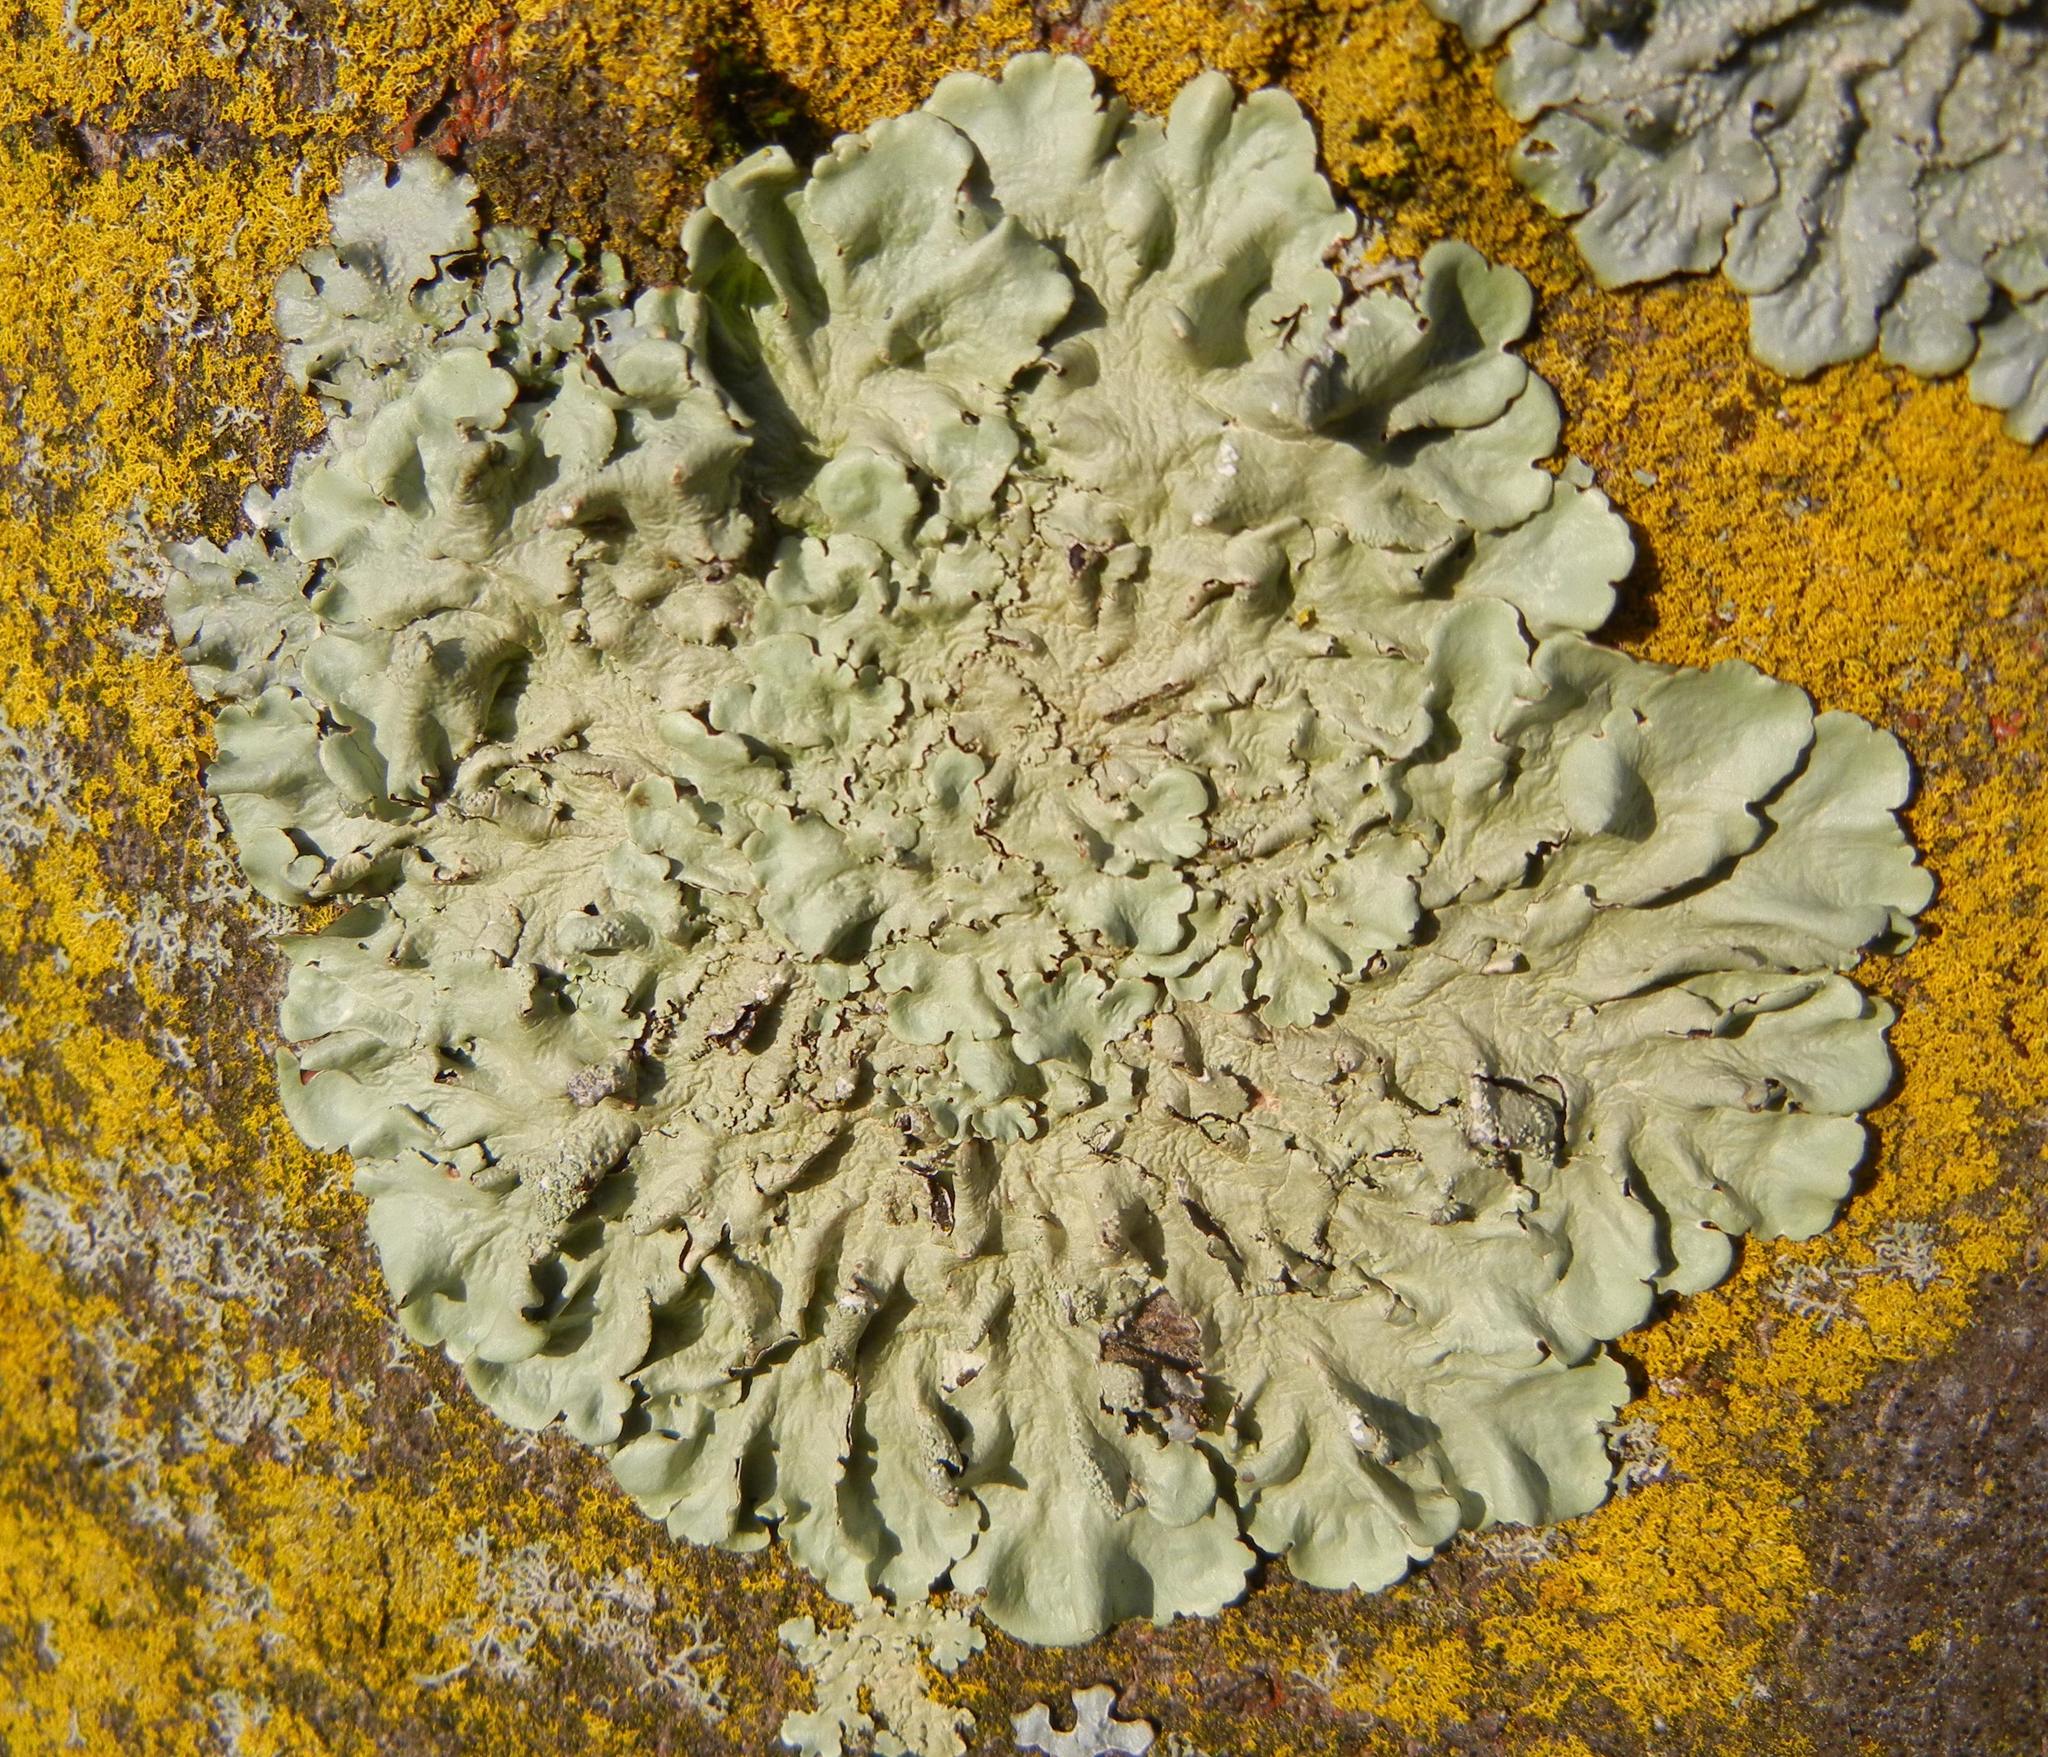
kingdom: Fungi
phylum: Ascomycota
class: Lecanoromycetes
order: Lecanorales
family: Parmeliaceae
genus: Flavoparmelia
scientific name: Flavoparmelia caperata
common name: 40-mile per hour lichen
